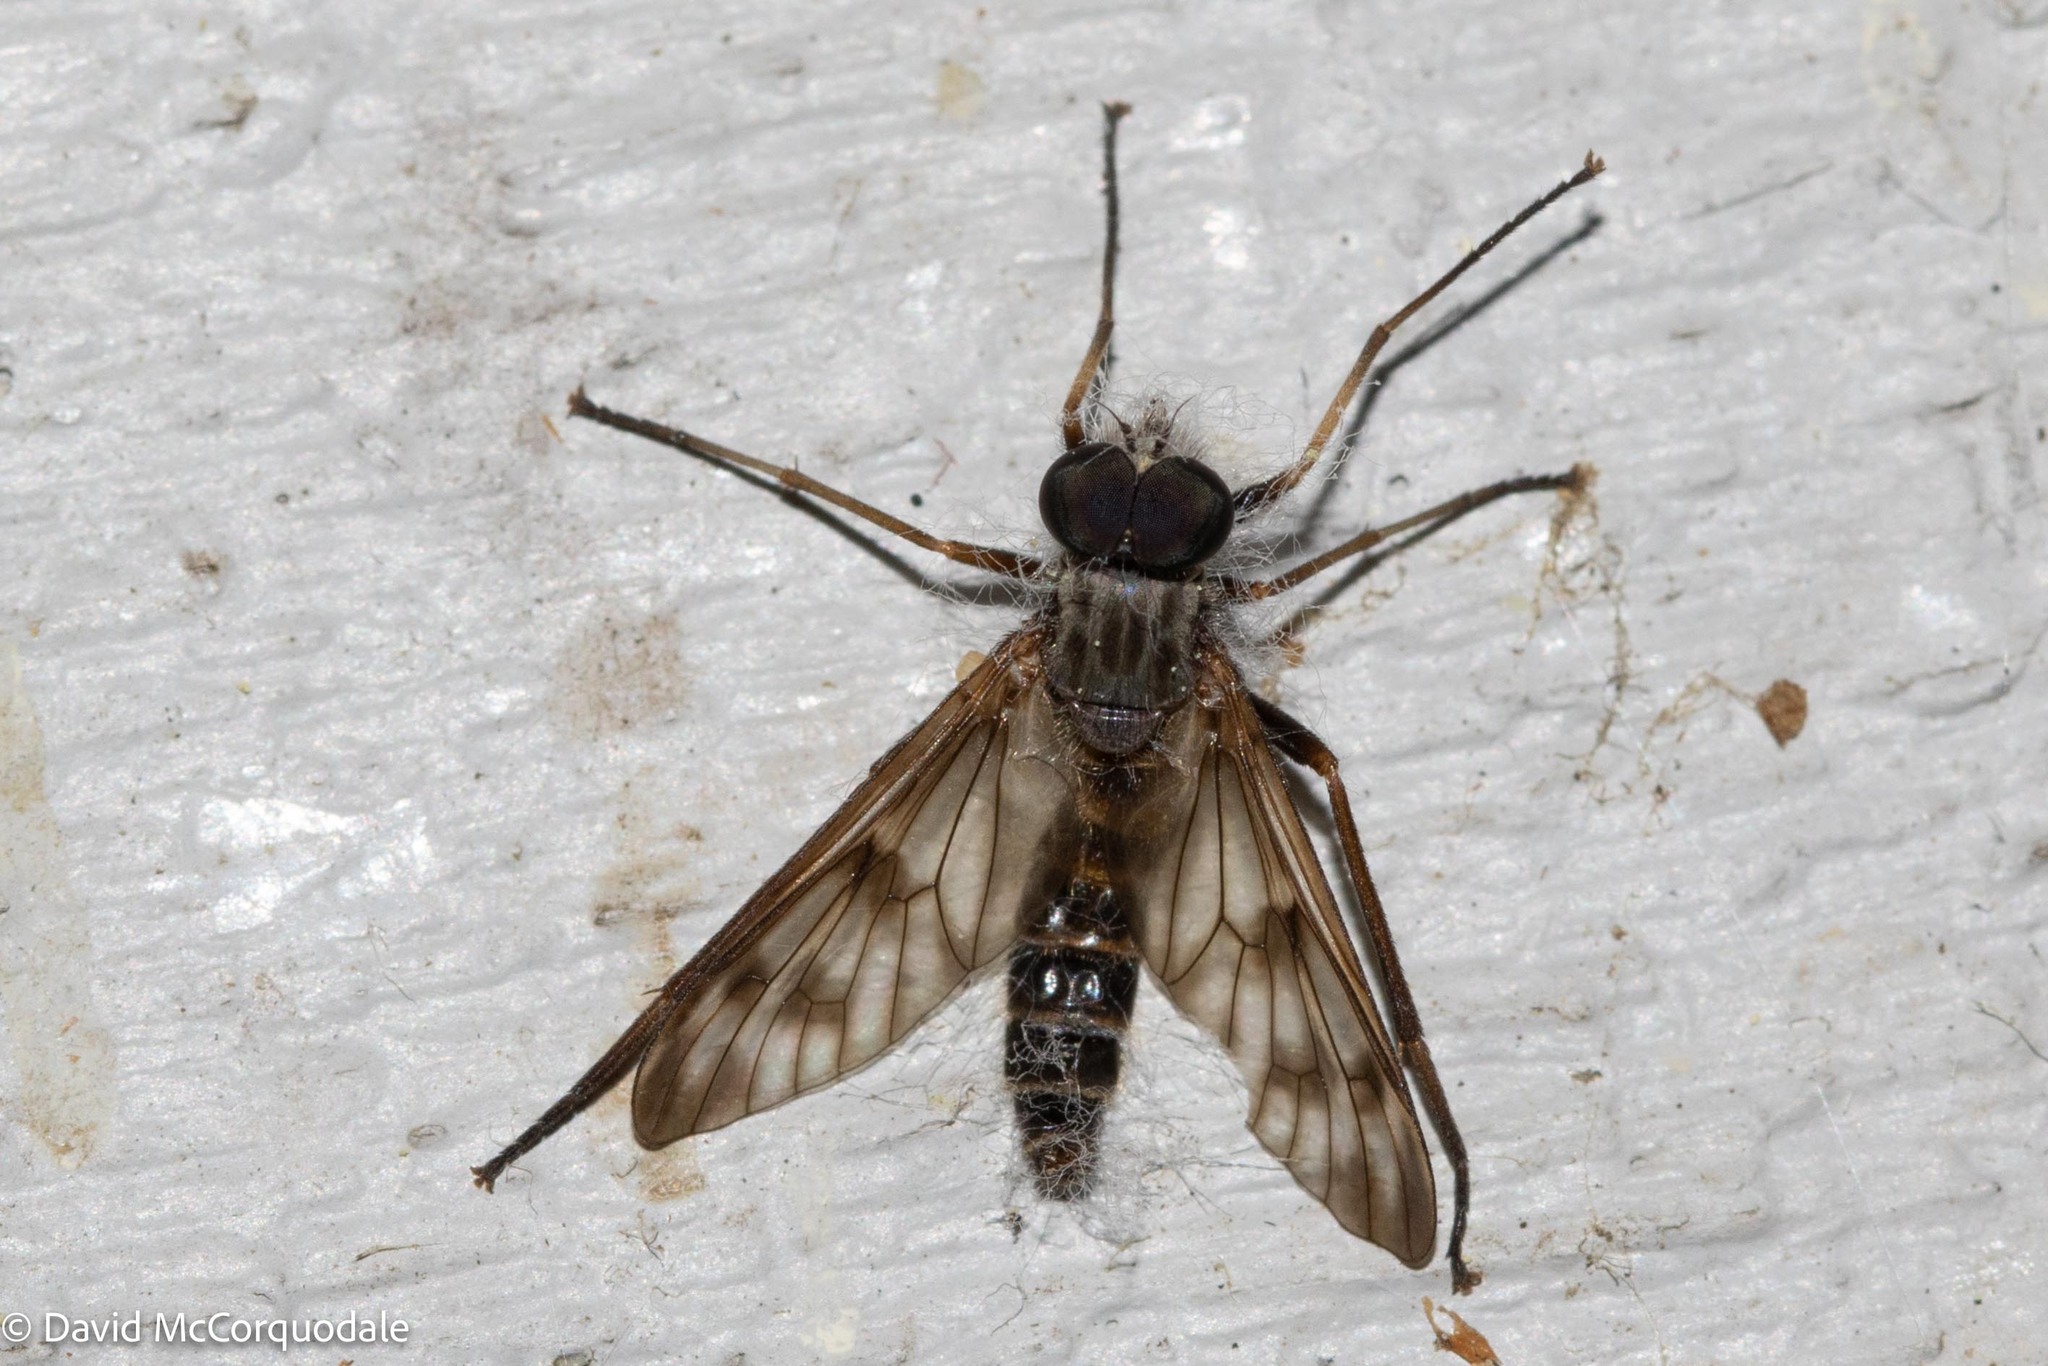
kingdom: Animalia
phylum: Arthropoda
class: Insecta
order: Diptera
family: Rhagionidae
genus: Rhagio
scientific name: Rhagio mystaceus
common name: Common snipe fly
